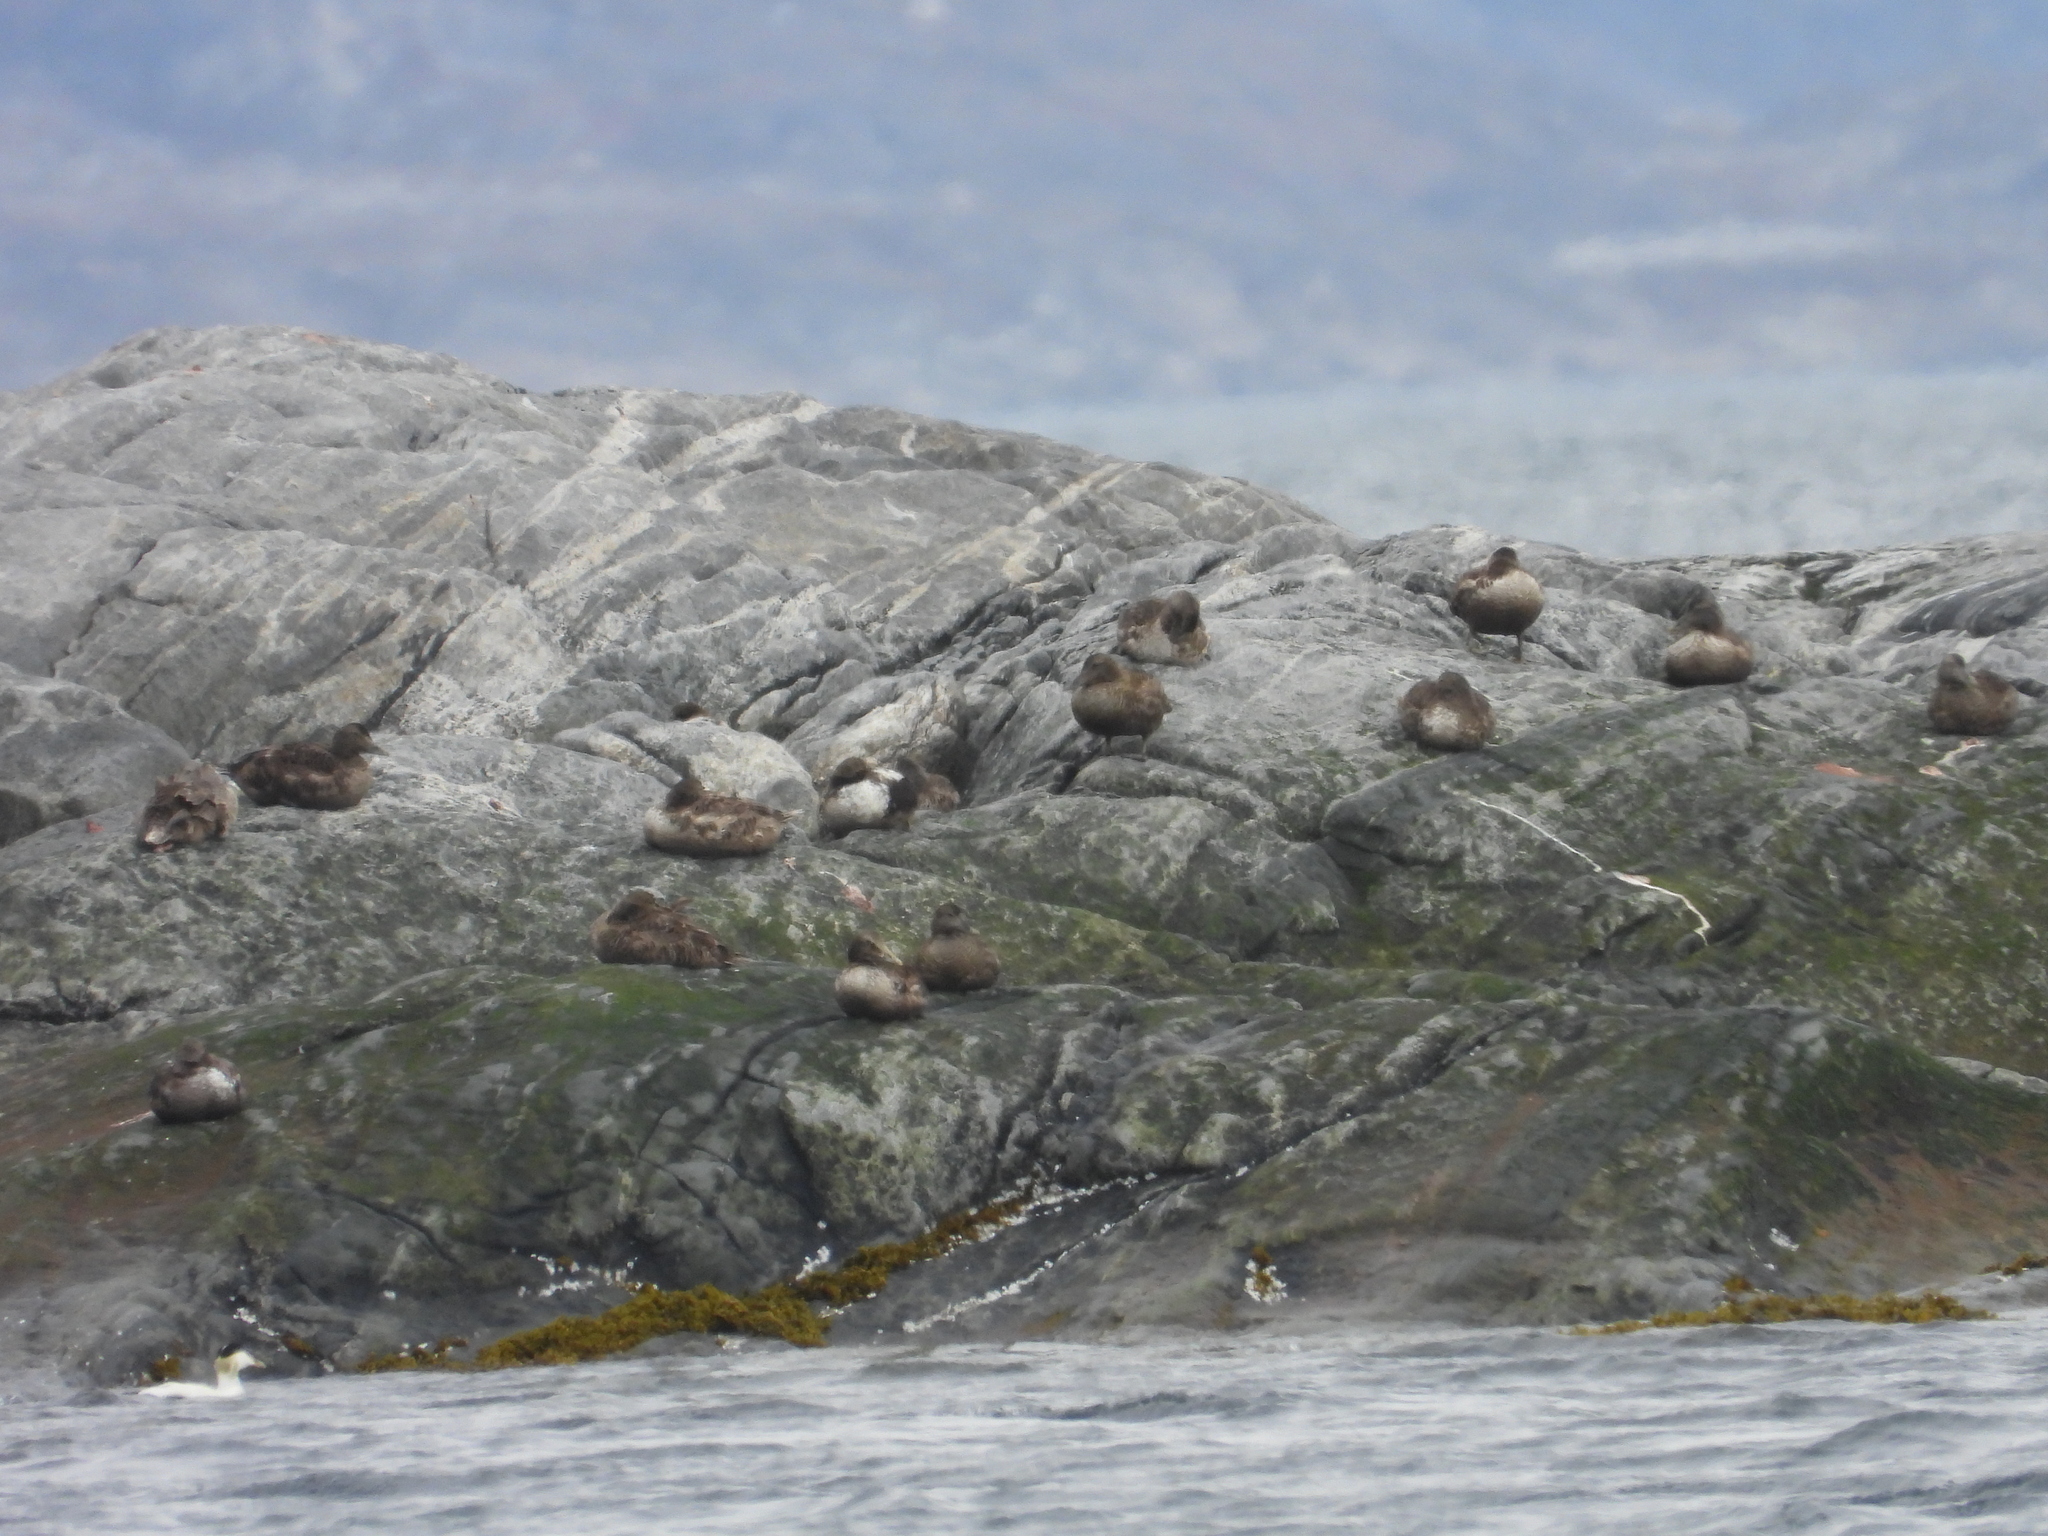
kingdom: Animalia
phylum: Chordata
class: Aves
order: Anseriformes
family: Anatidae
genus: Somateria
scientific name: Somateria mollissima
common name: Common eider
